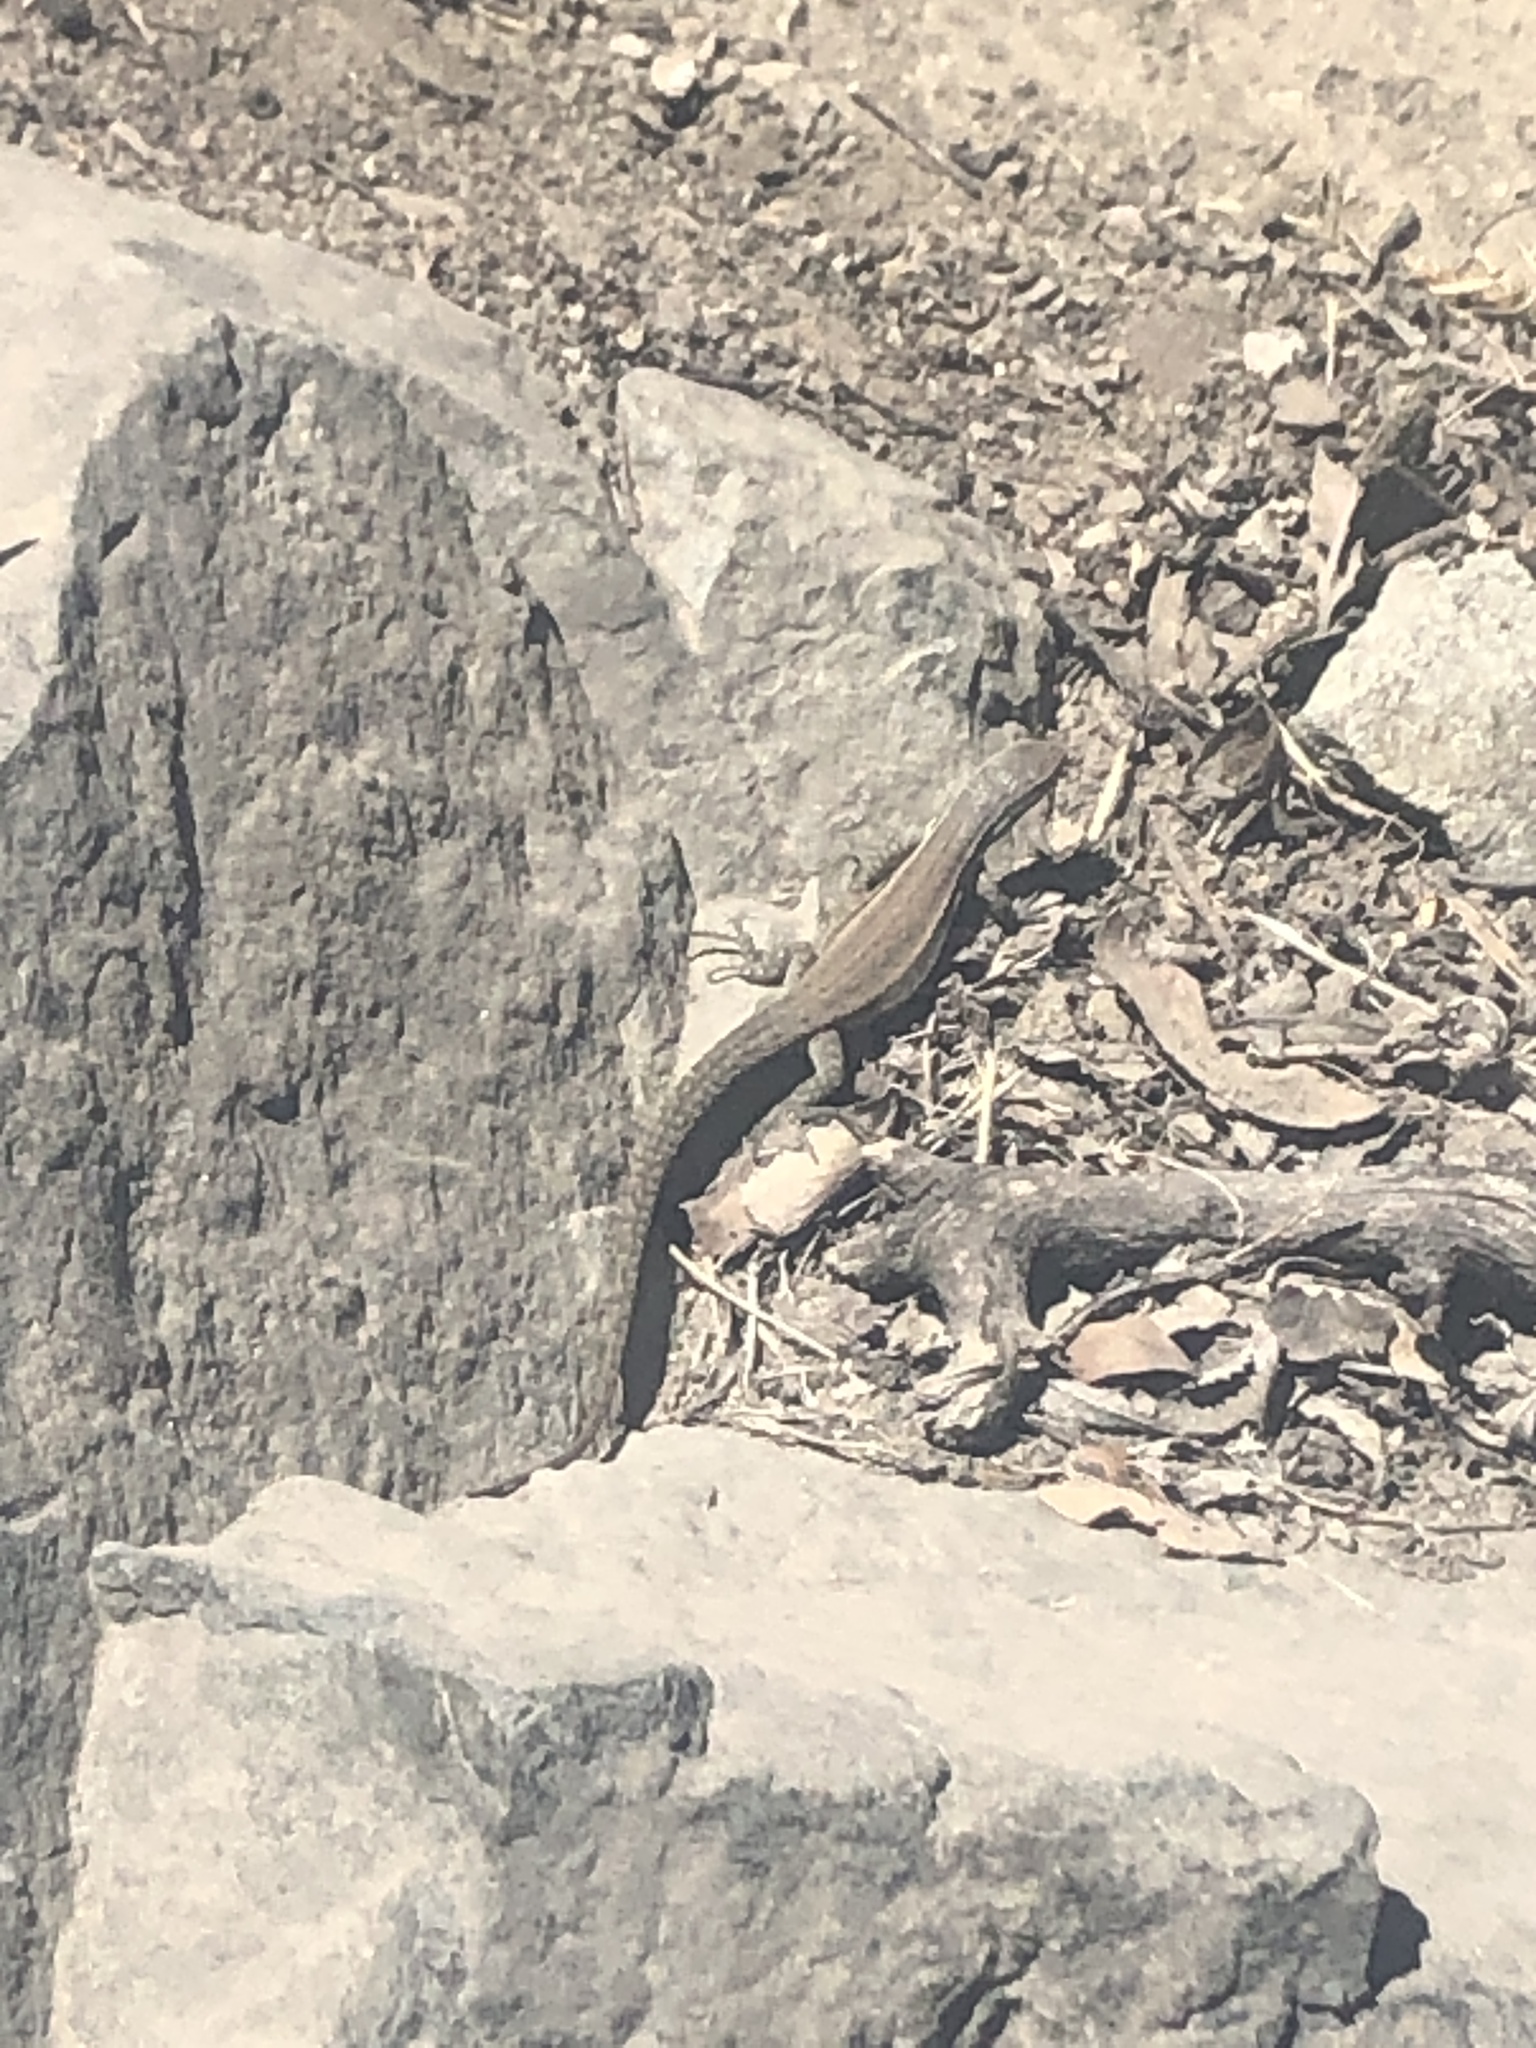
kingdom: Animalia
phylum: Chordata
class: Squamata
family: Liolaemidae
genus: Liolaemus
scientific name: Liolaemus fuscus
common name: Brown tree iguana
